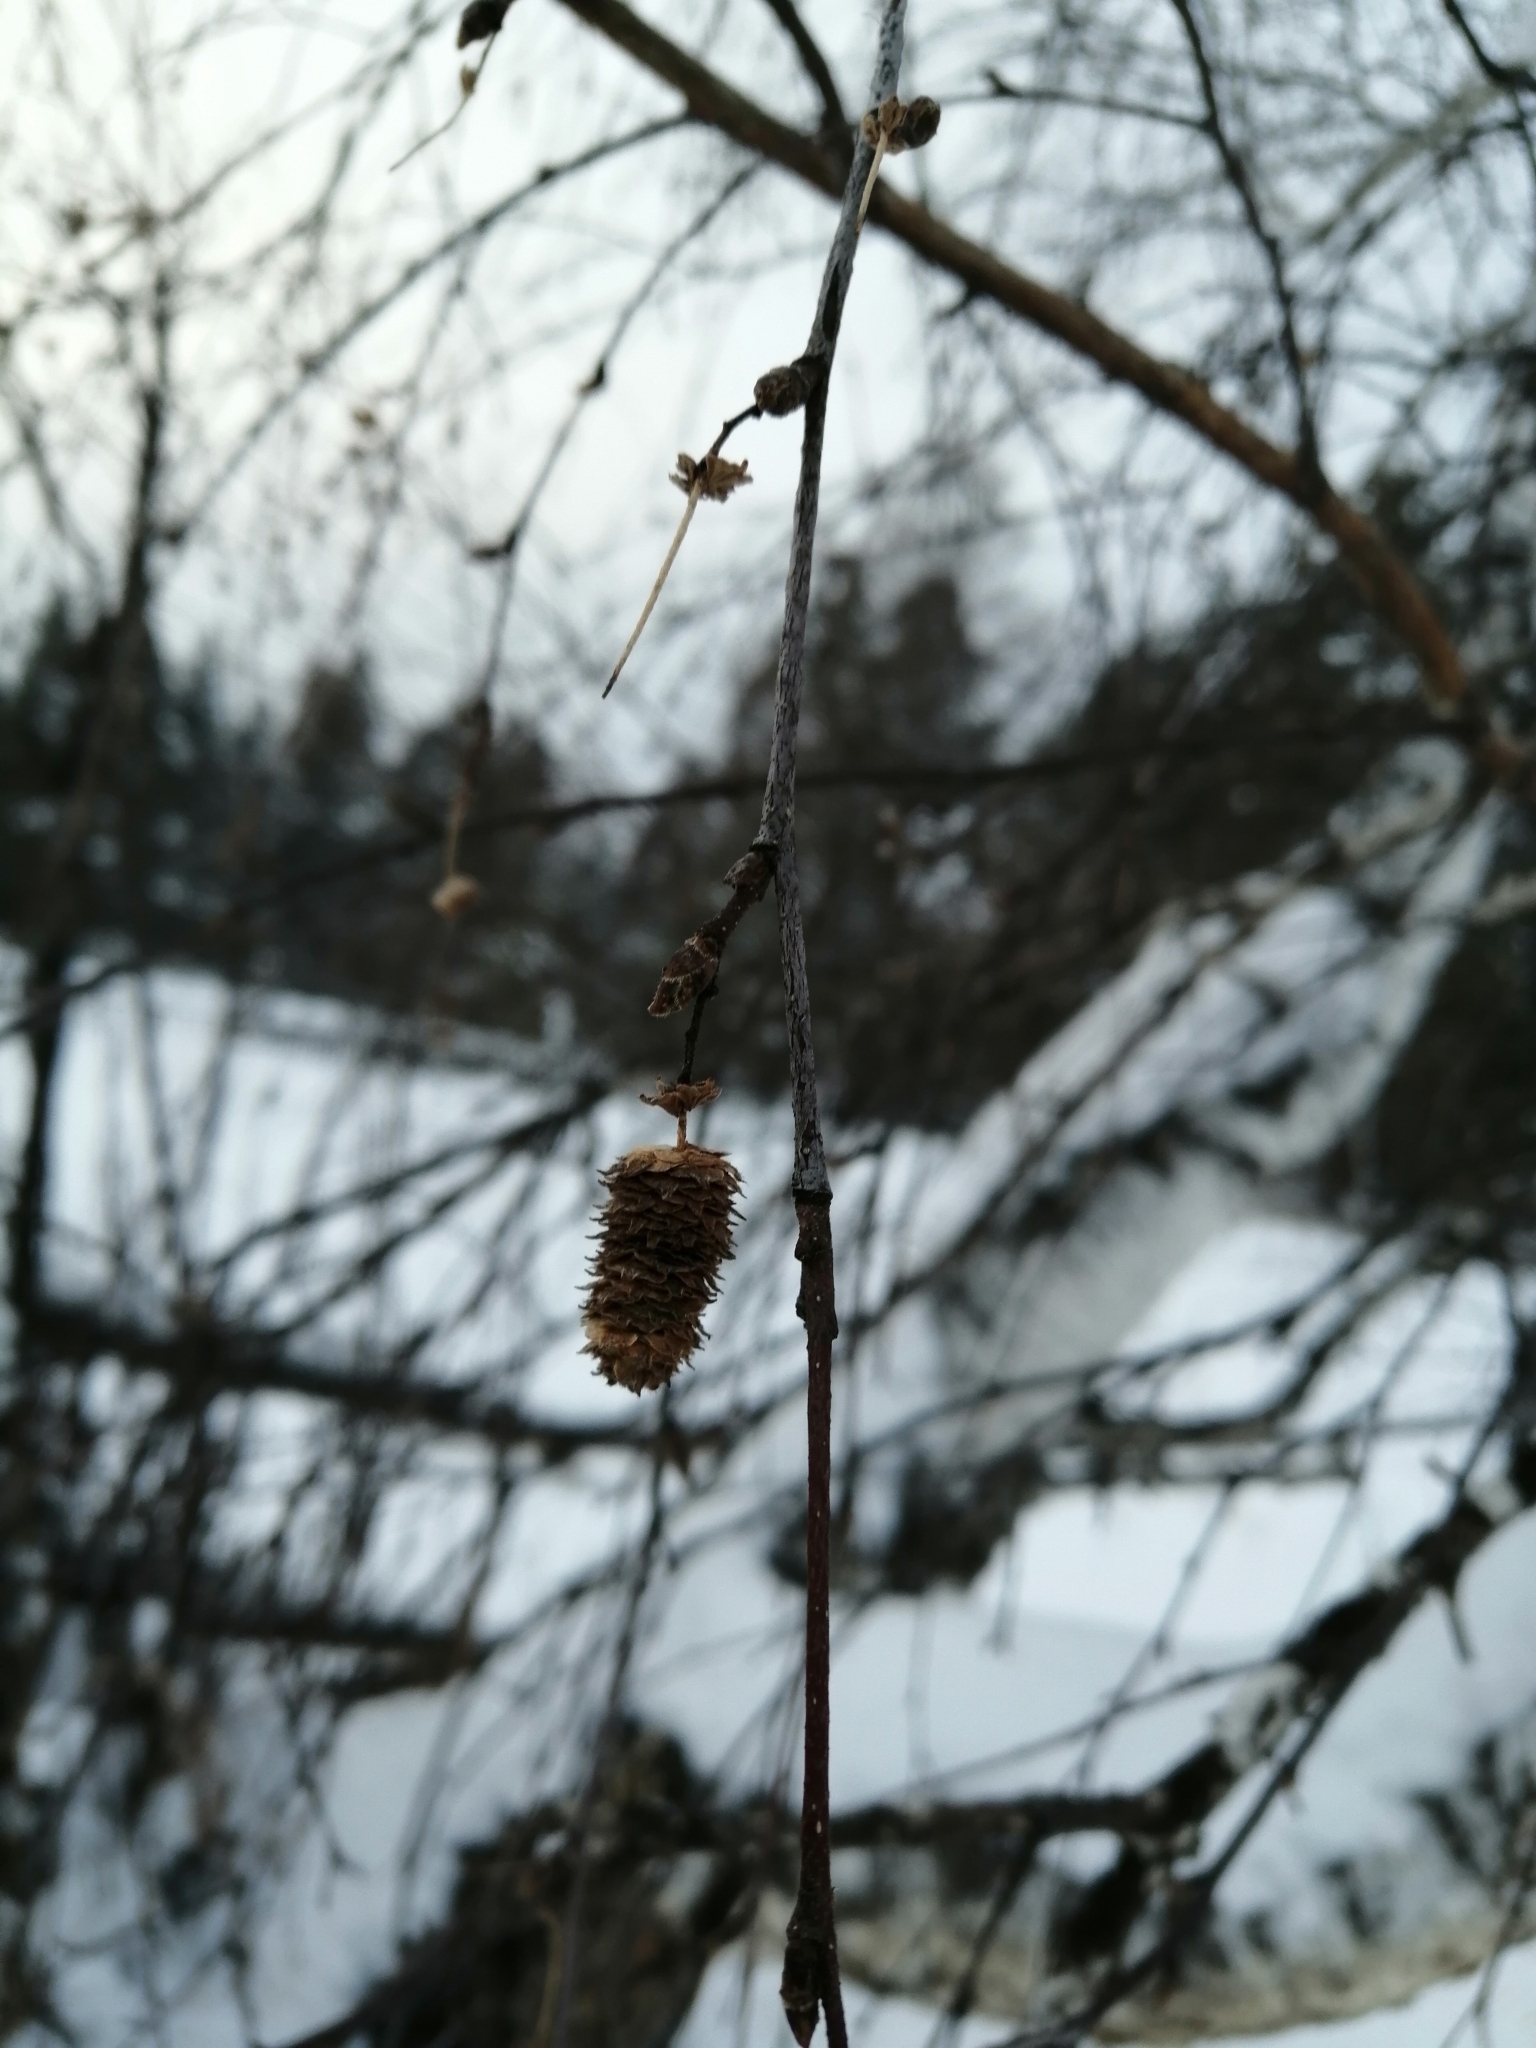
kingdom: Plantae
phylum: Tracheophyta
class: Magnoliopsida
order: Fagales
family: Betulaceae
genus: Betula
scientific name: Betula pendula
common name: Silver birch
